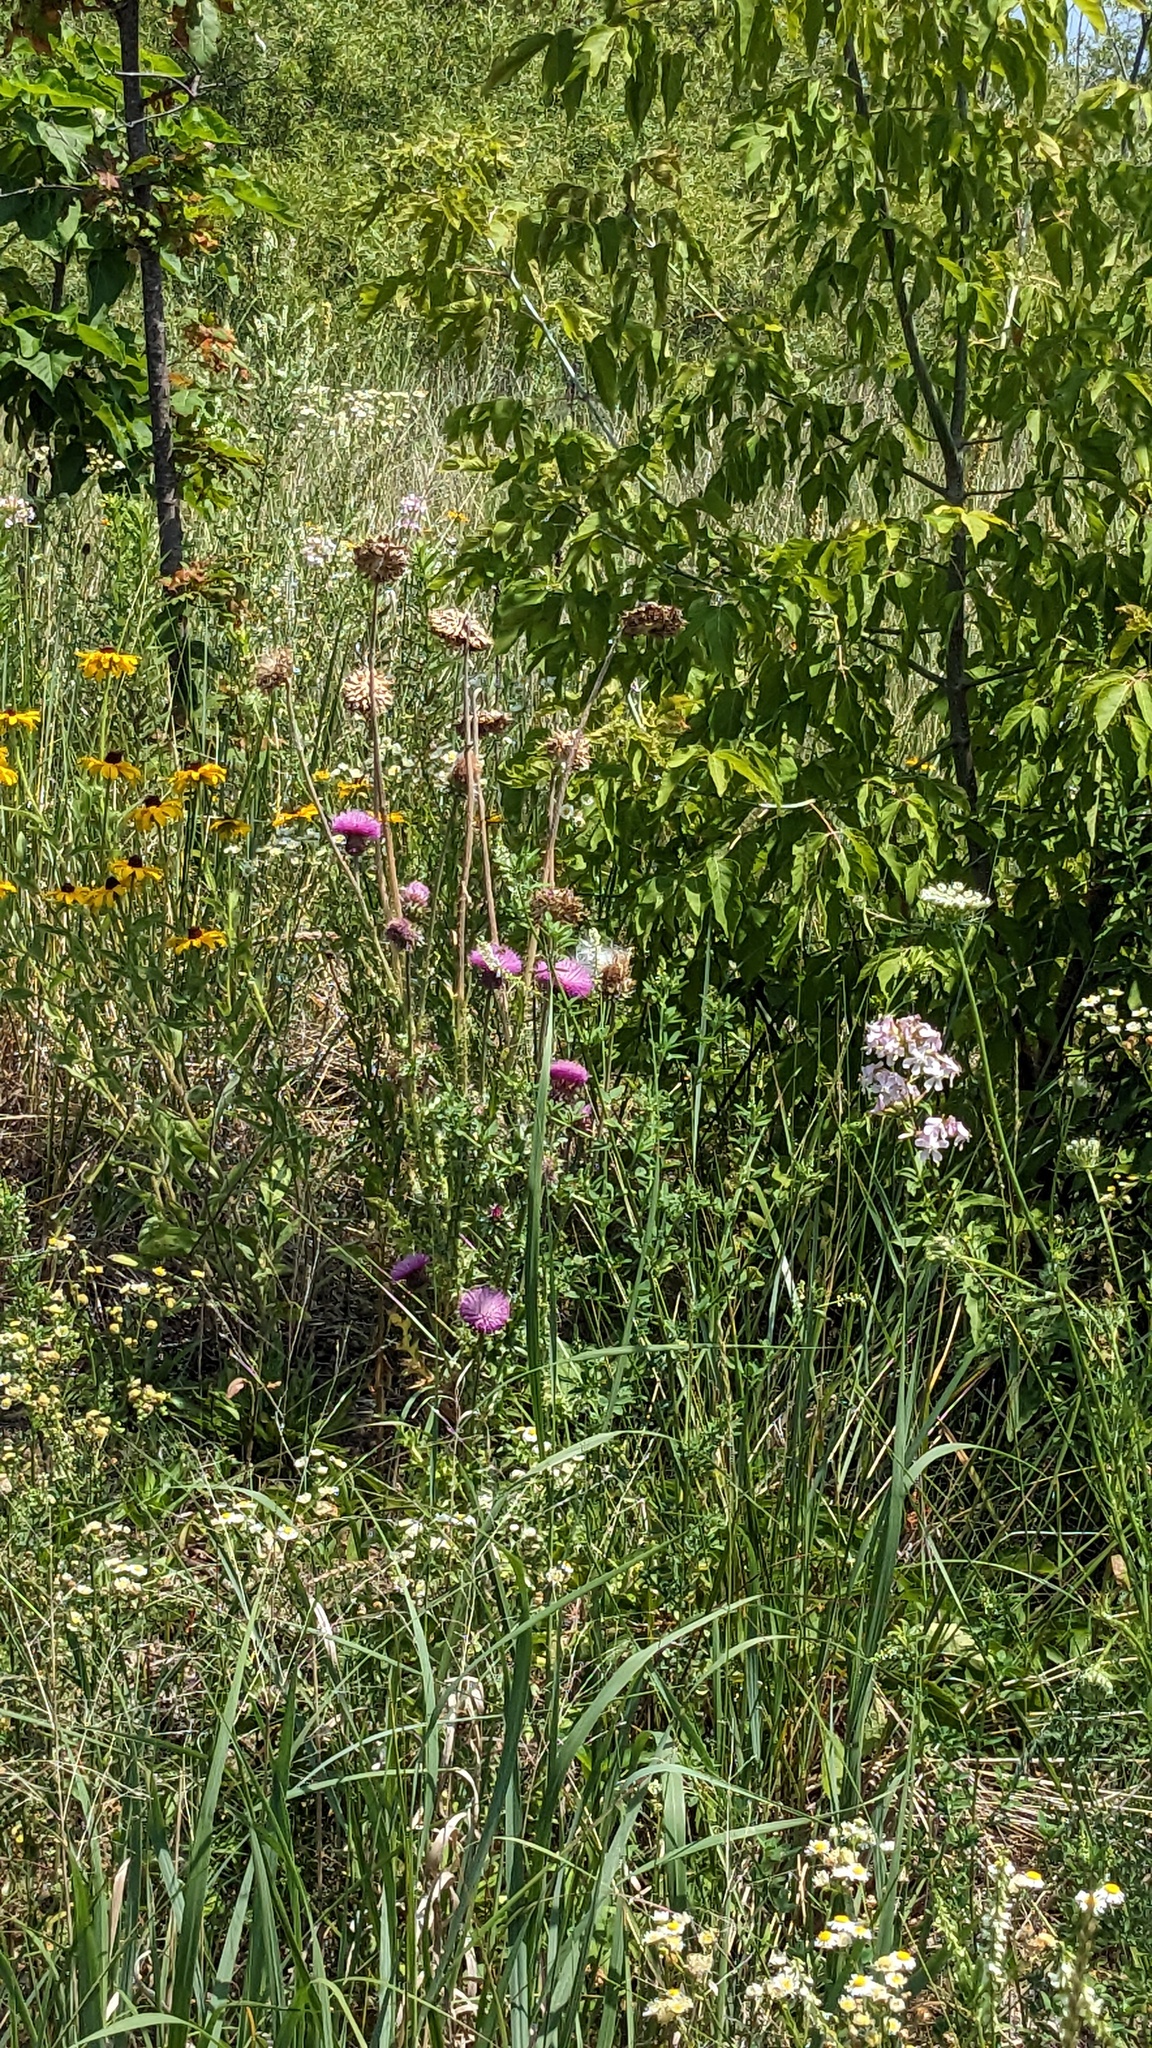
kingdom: Plantae
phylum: Tracheophyta
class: Magnoliopsida
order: Asterales
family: Asteraceae
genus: Carduus
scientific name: Carduus nutans
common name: Musk thistle
